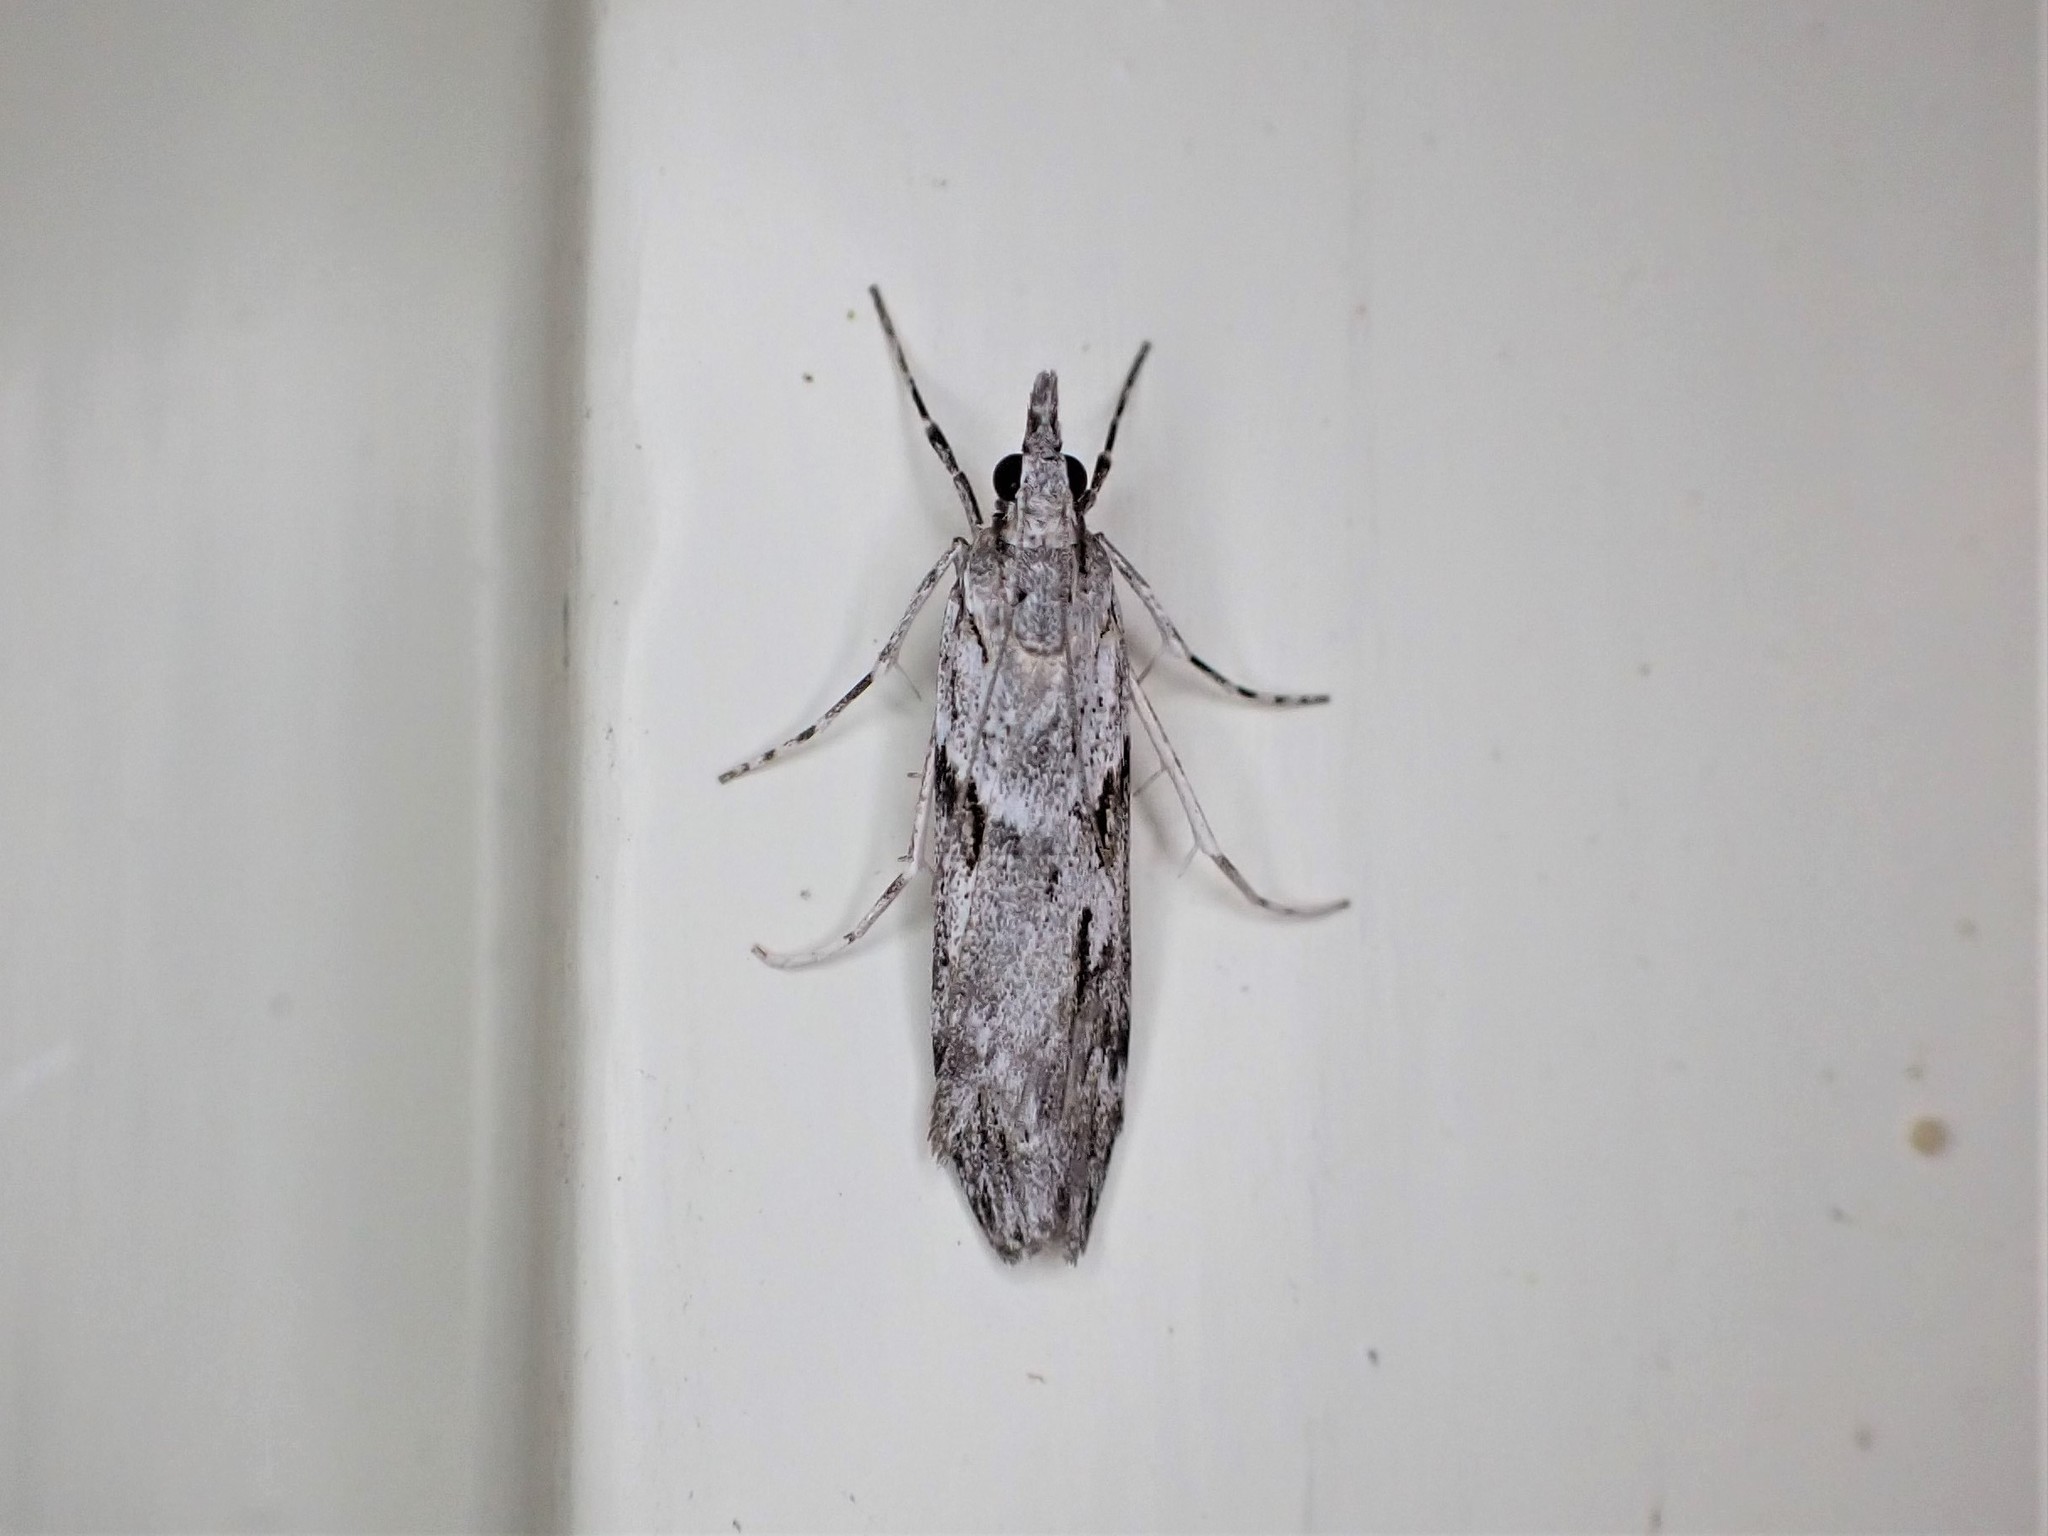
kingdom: Animalia
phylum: Arthropoda
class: Insecta
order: Lepidoptera
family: Crambidae
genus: Scoparia
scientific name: Scoparia halopis
